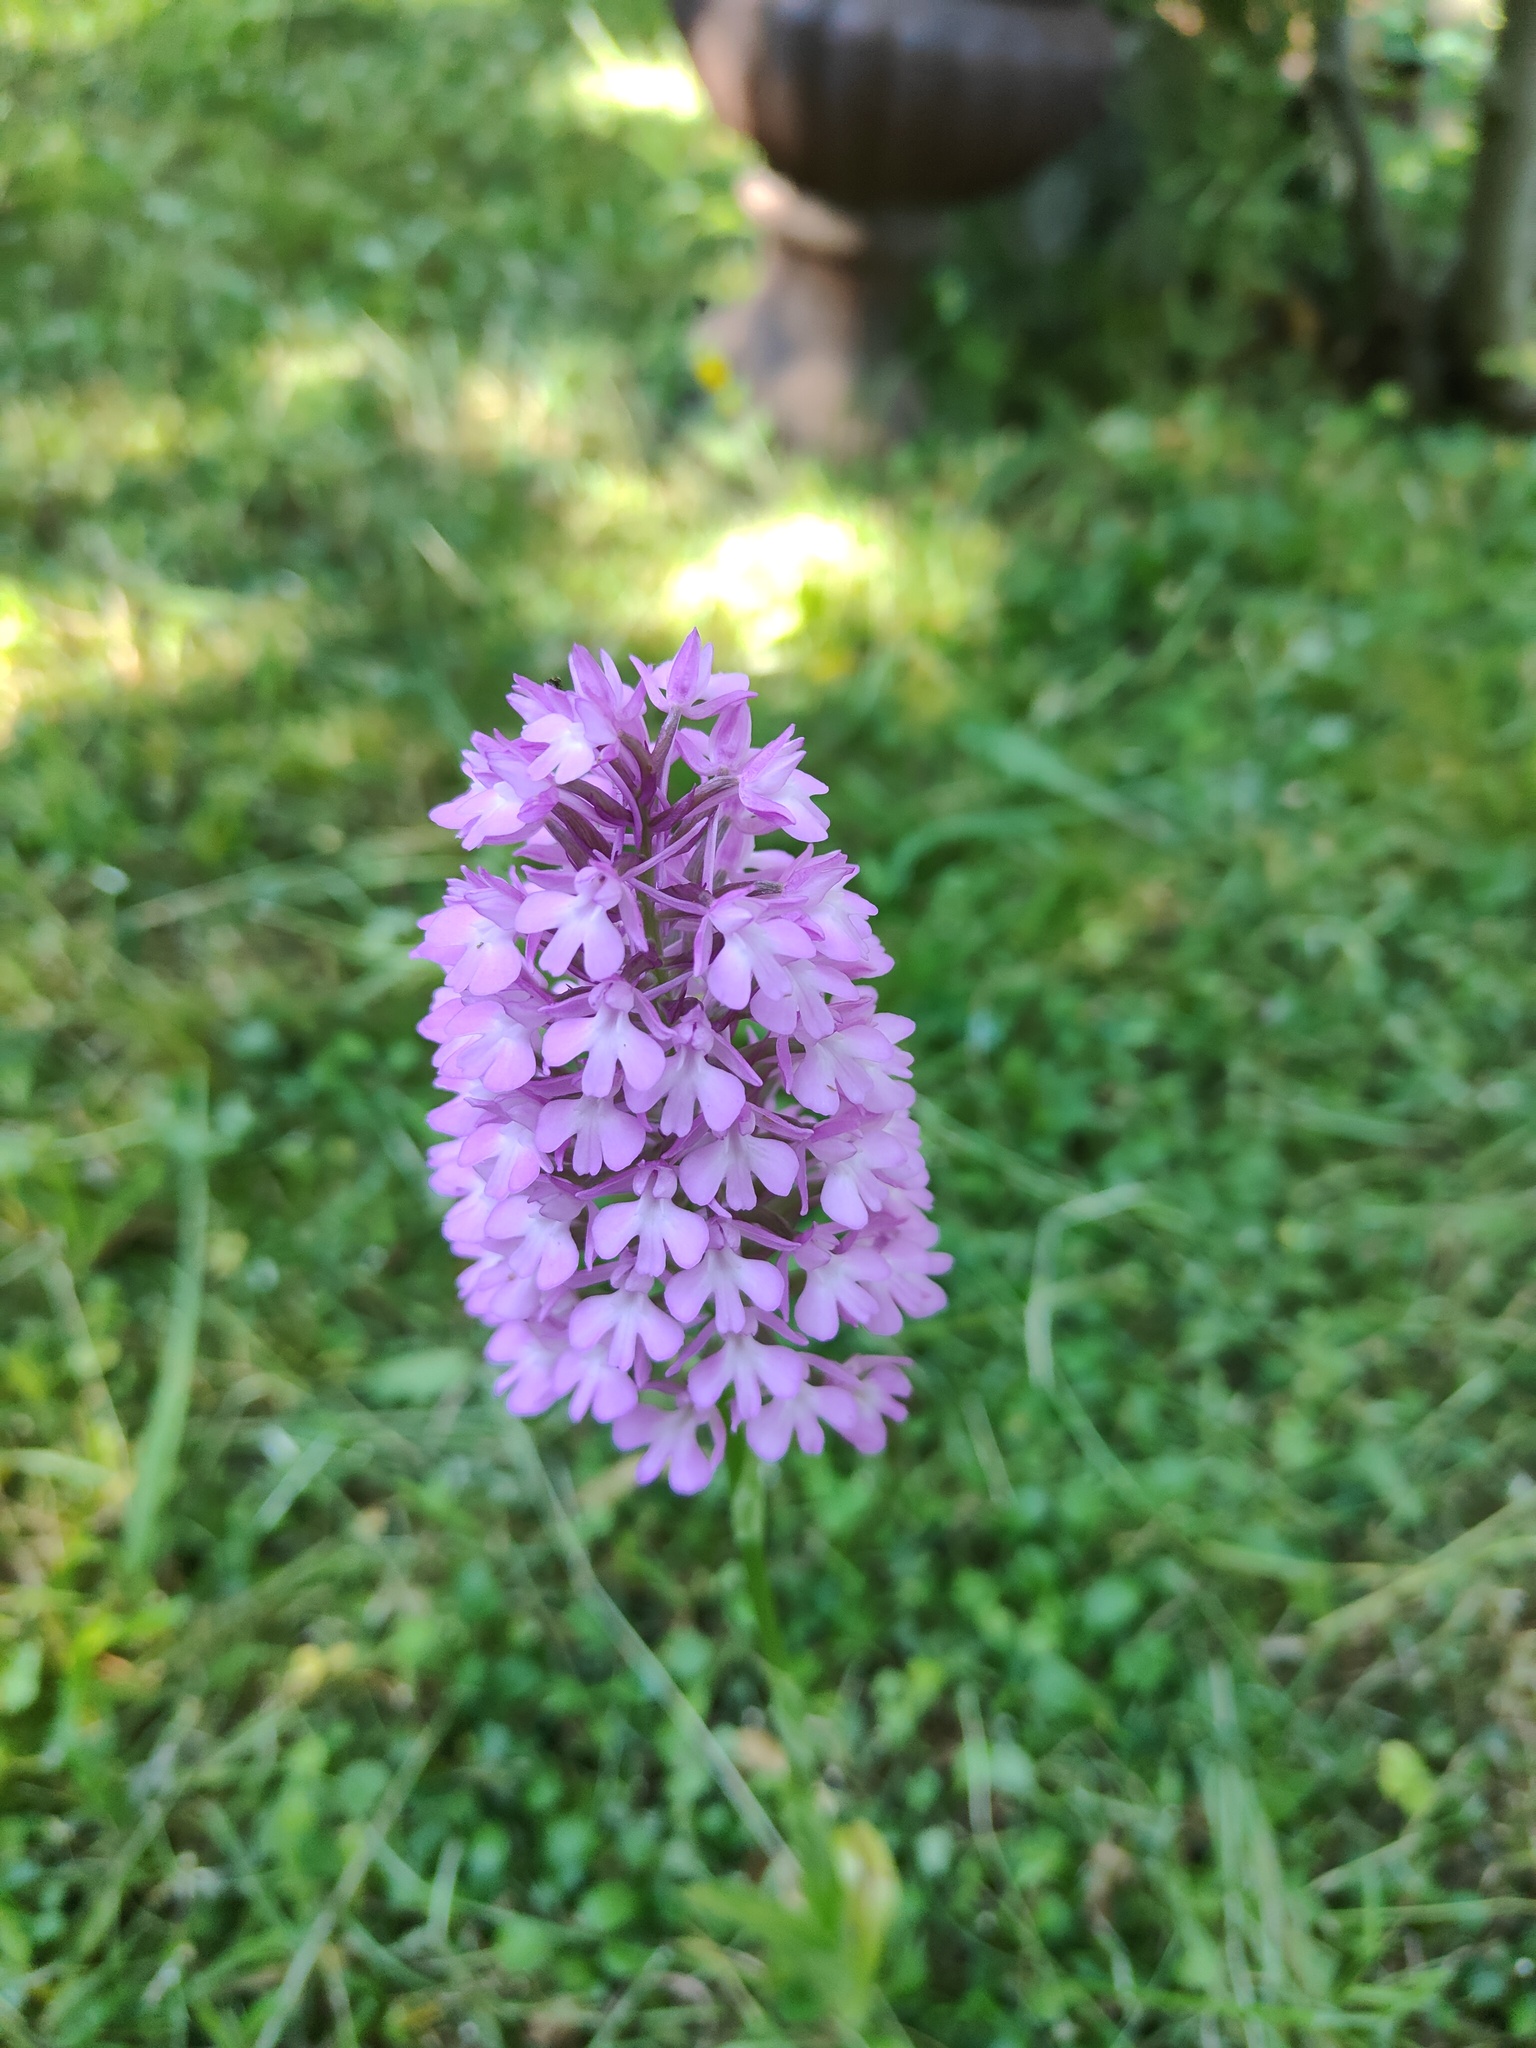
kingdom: Plantae
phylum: Tracheophyta
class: Liliopsida
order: Asparagales
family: Orchidaceae
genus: Anacamptis
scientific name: Anacamptis pyramidalis
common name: Pyramidal orchid
